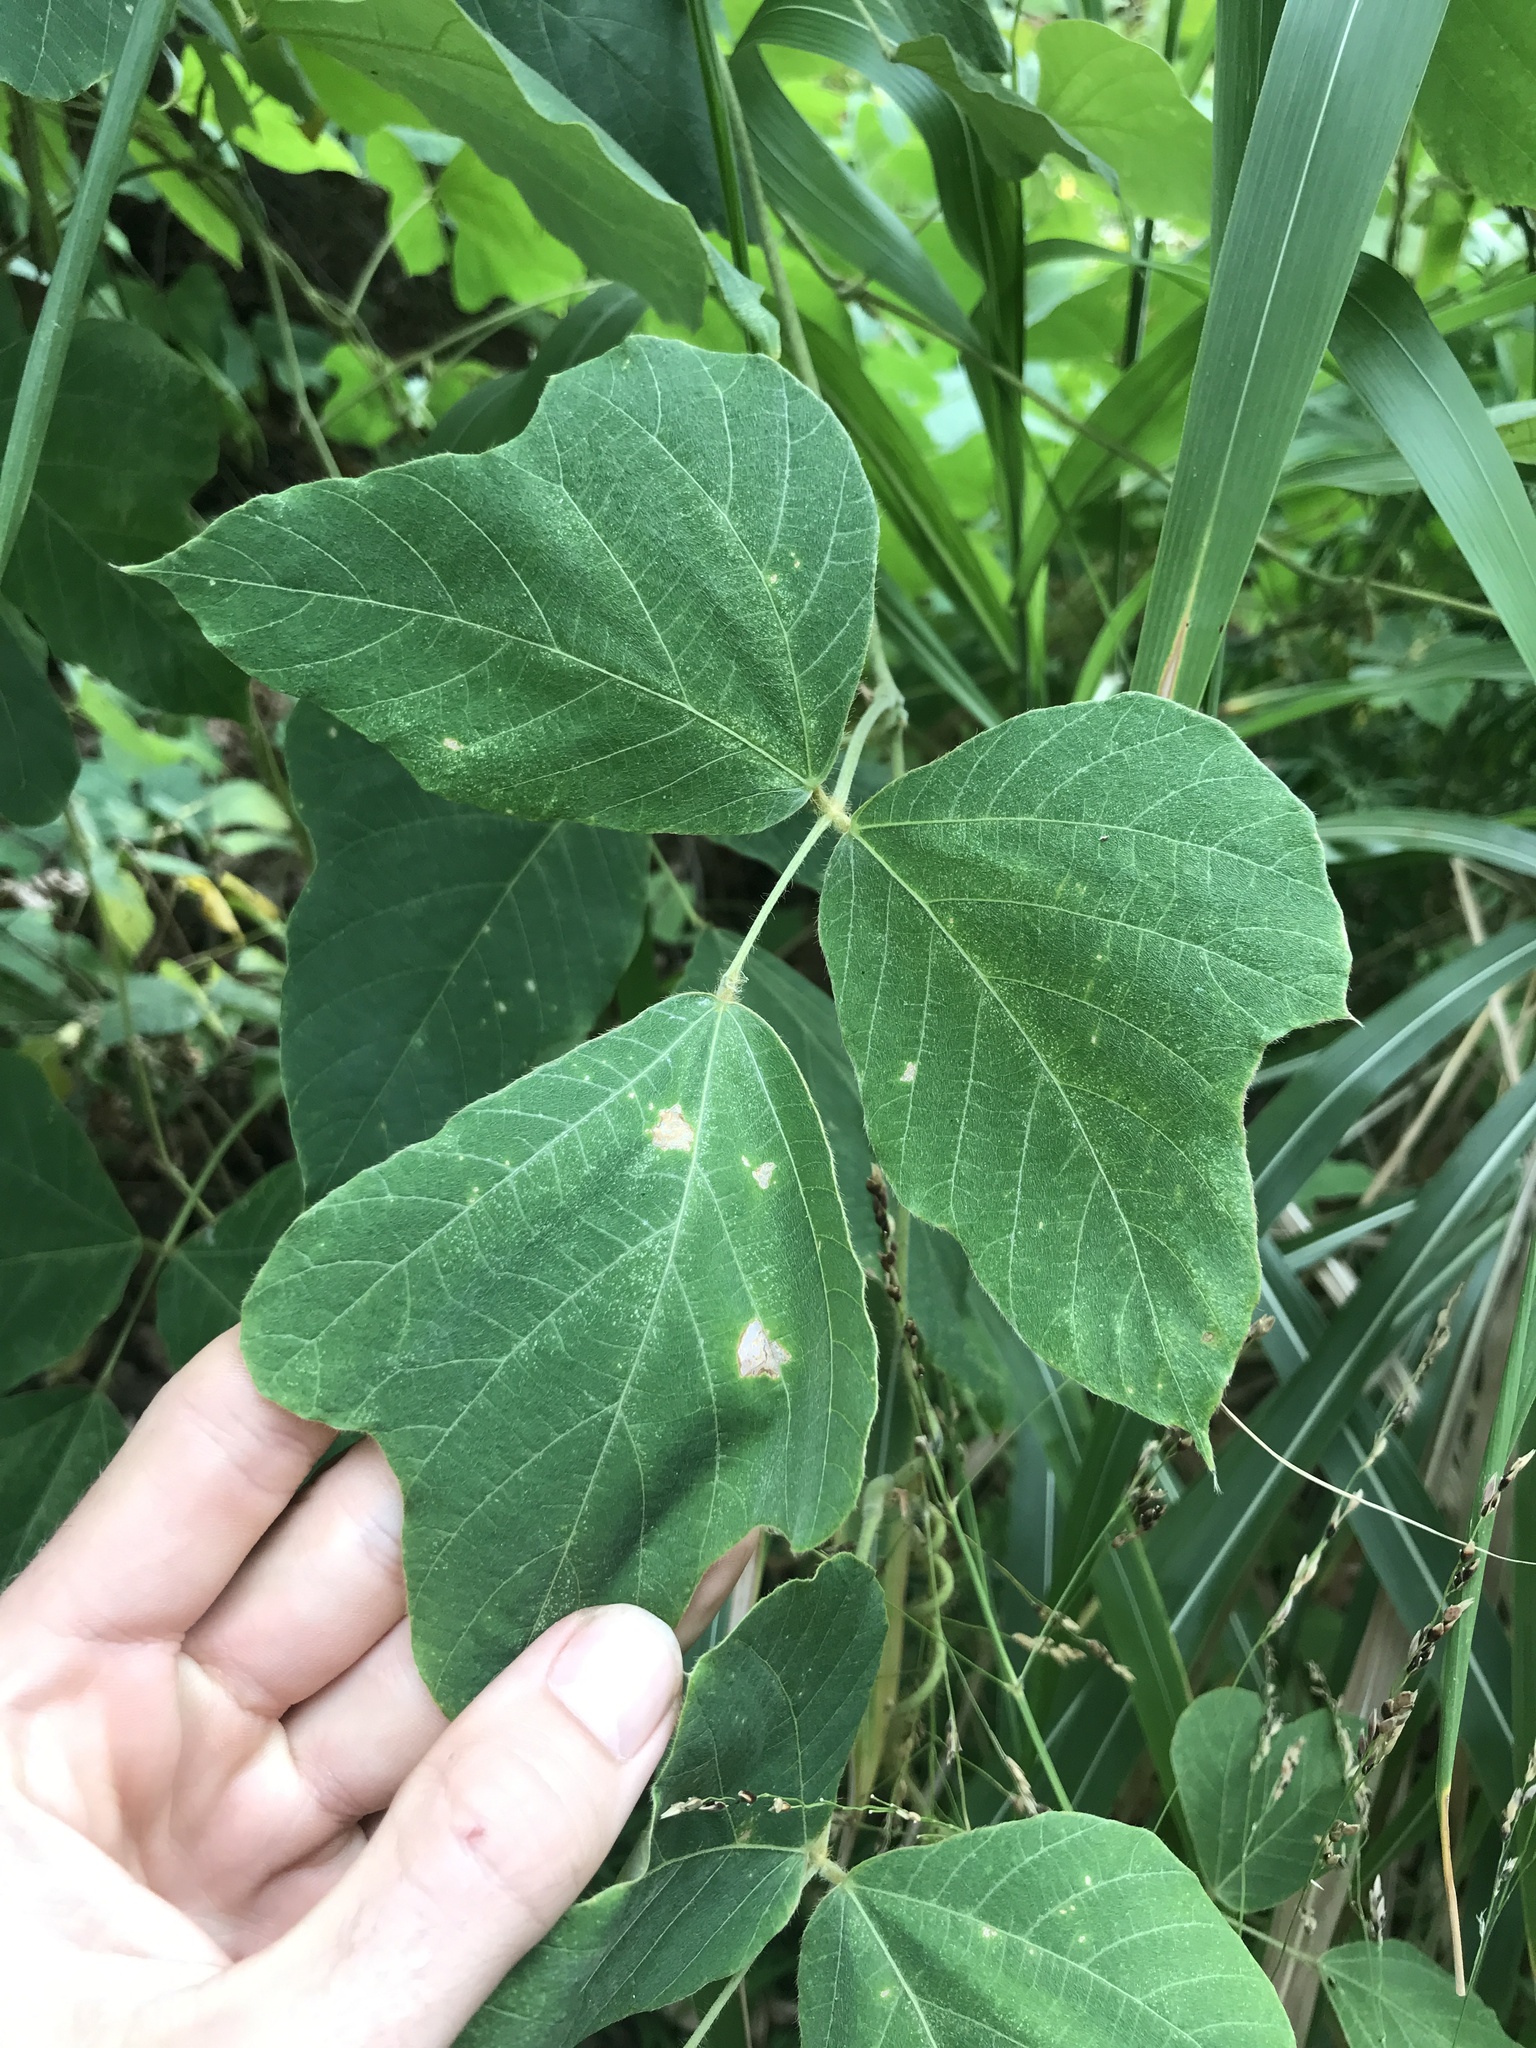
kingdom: Plantae
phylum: Tracheophyta
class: Magnoliopsida
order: Fabales
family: Fabaceae
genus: Pueraria
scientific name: Pueraria montana
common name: Kudzu
